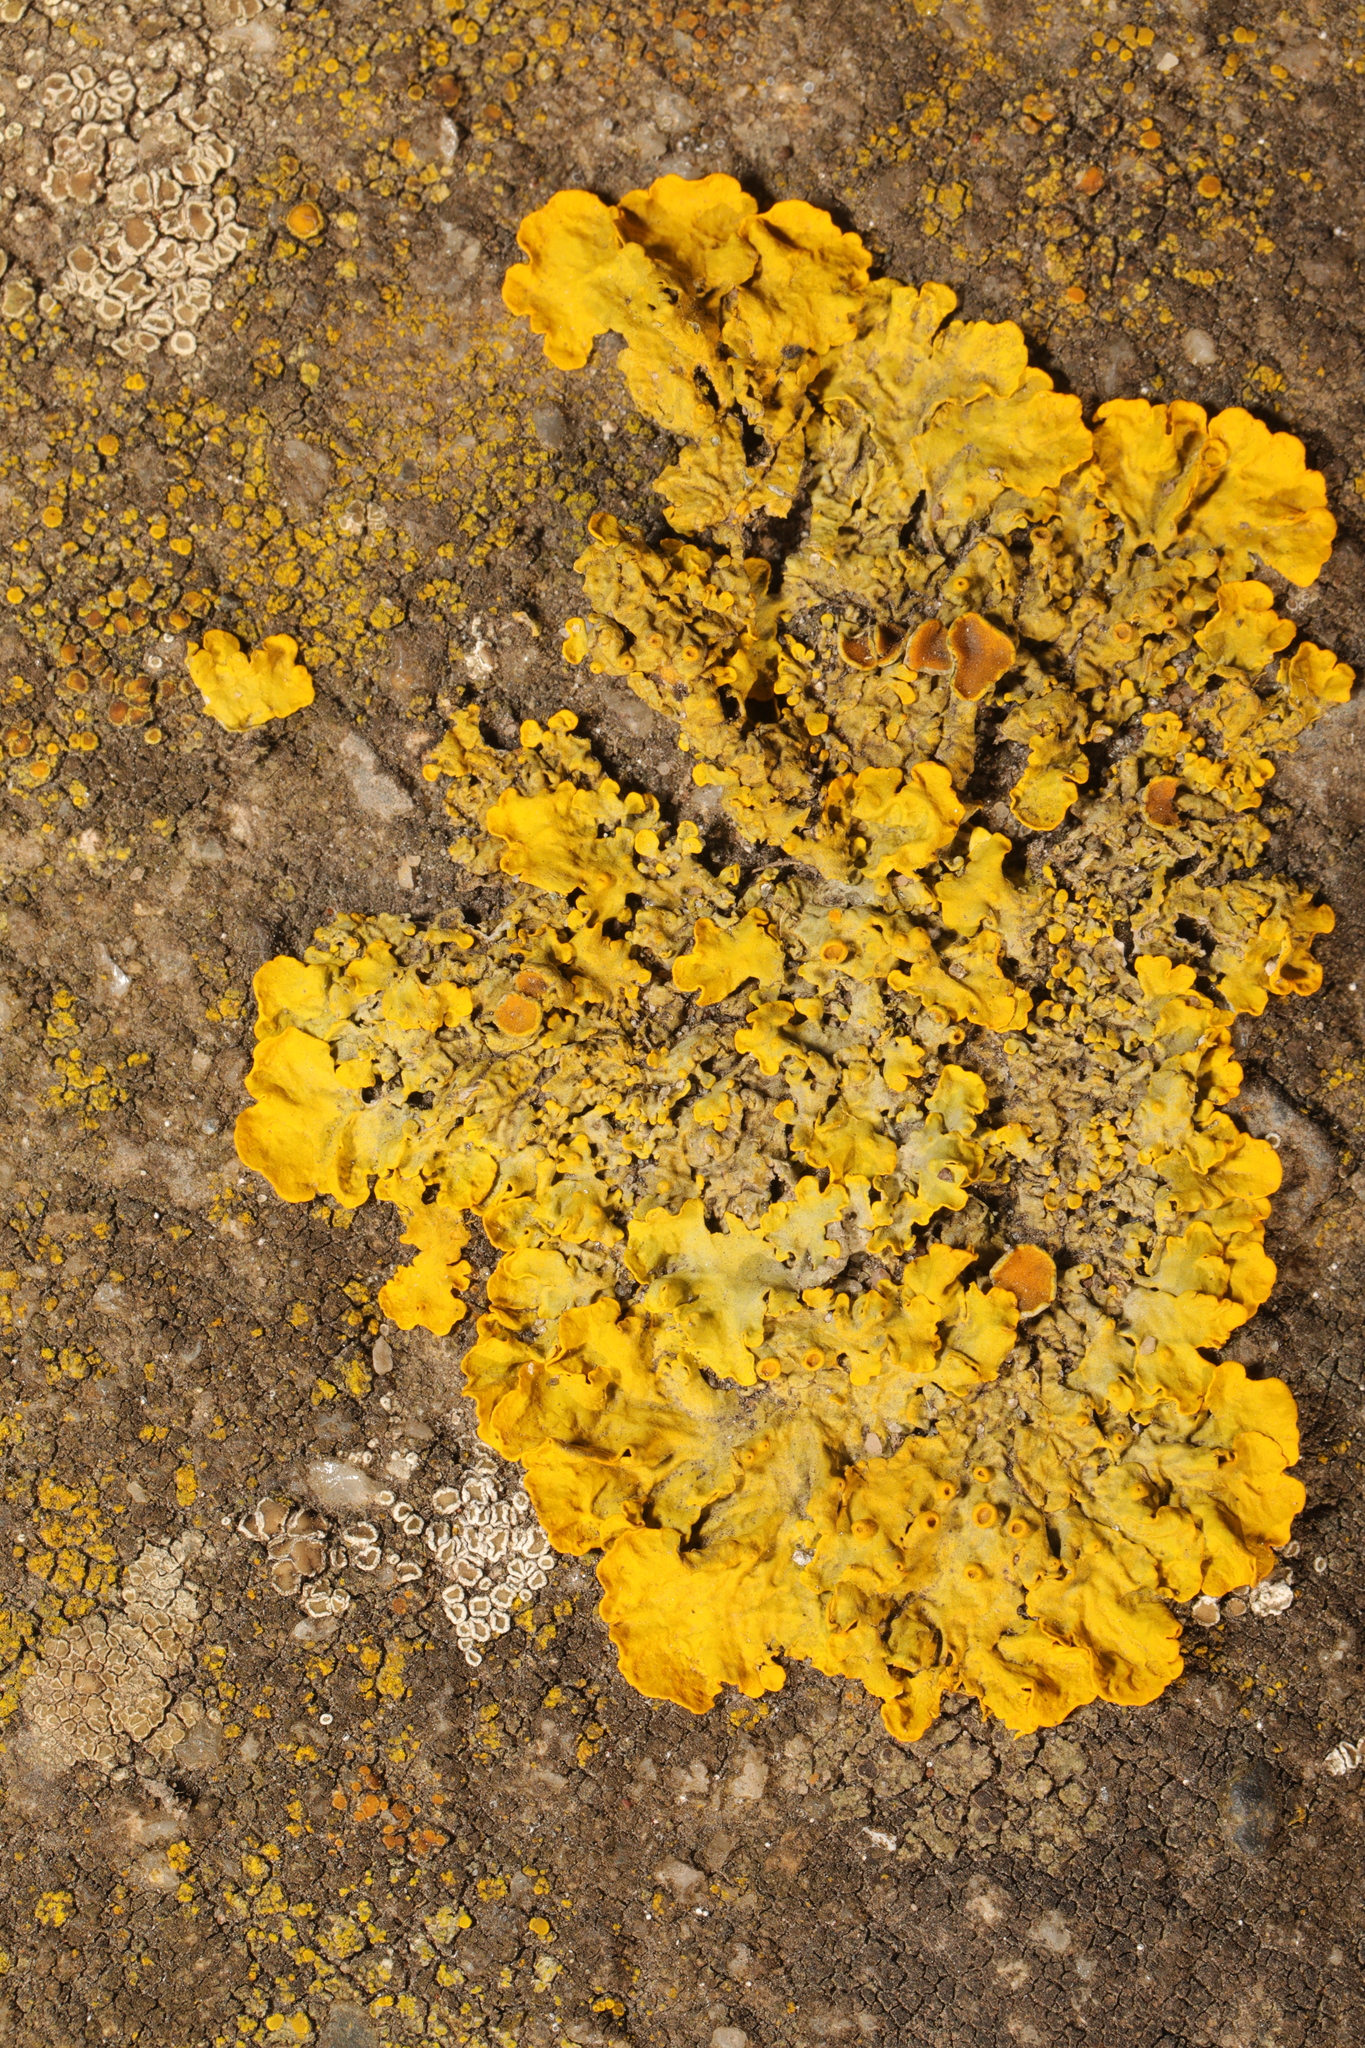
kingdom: Fungi
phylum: Ascomycota
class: Lecanoromycetes
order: Teloschistales
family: Teloschistaceae
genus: Xanthoria
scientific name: Xanthoria parietina
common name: Common orange lichen
